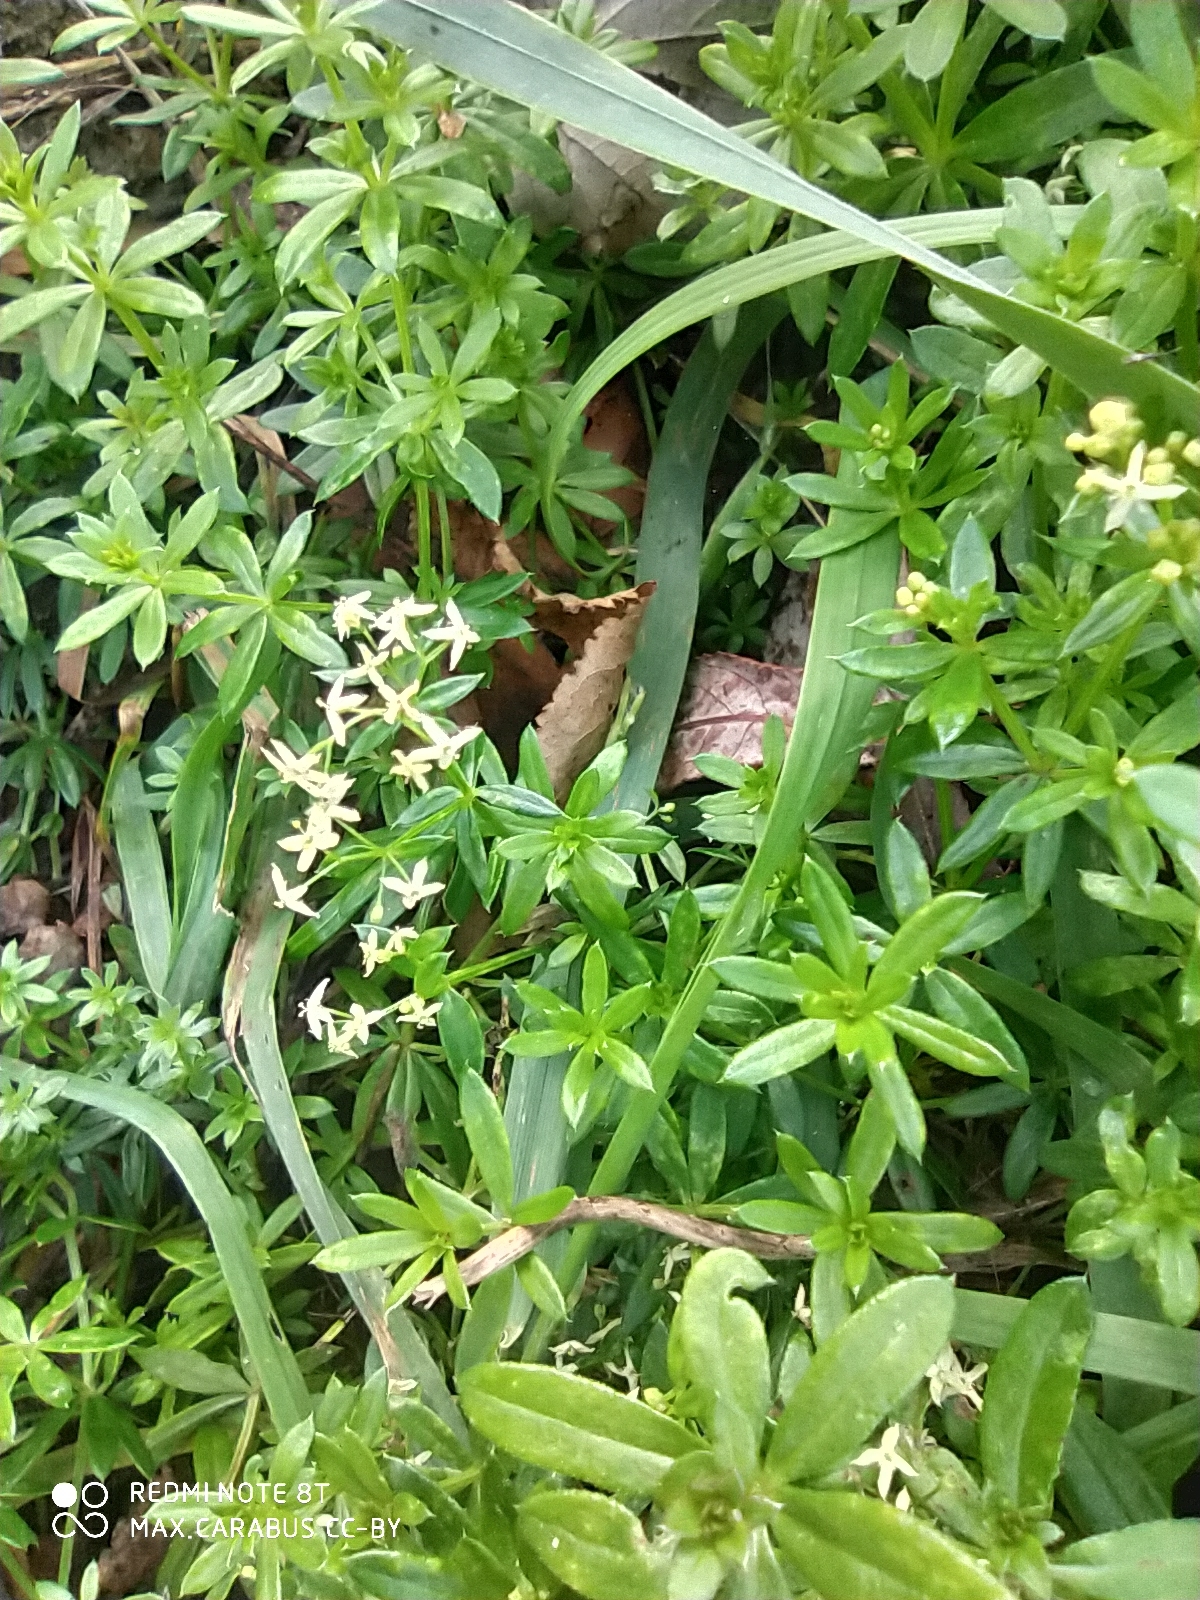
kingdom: Plantae
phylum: Tracheophyta
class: Magnoliopsida
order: Gentianales
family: Rubiaceae
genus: Galium
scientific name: Galium mollugo
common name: Hedge bedstraw
